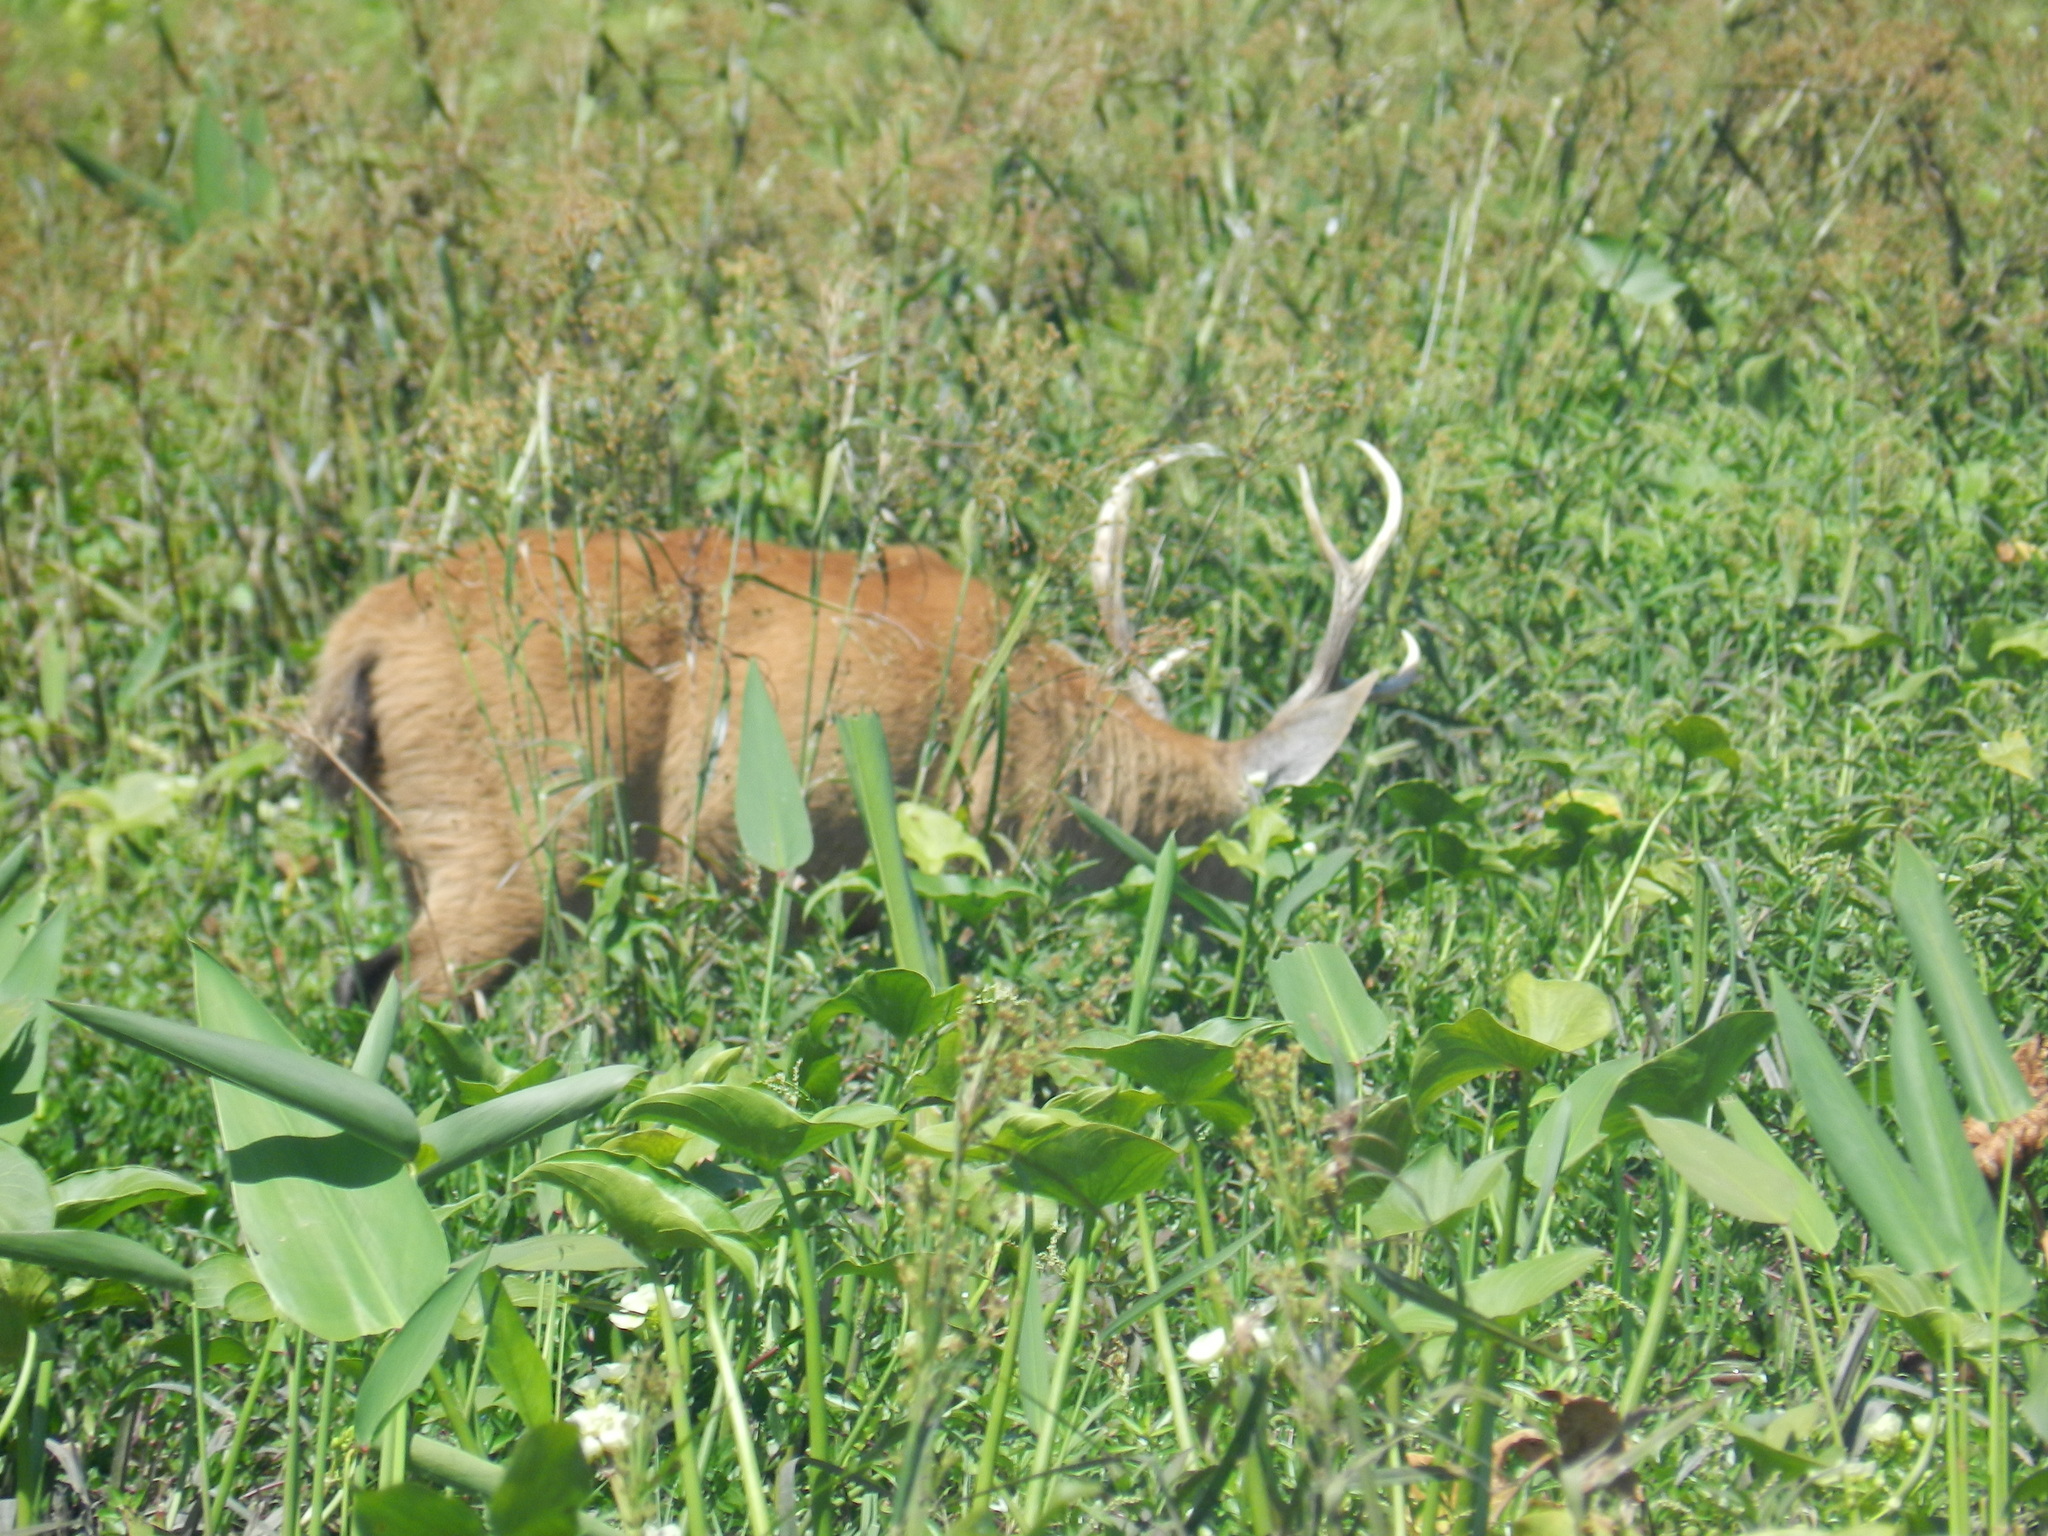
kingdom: Animalia
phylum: Chordata
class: Mammalia
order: Artiodactyla
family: Cervidae
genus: Blastocerus
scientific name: Blastocerus dichotomus
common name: Marsh deer
